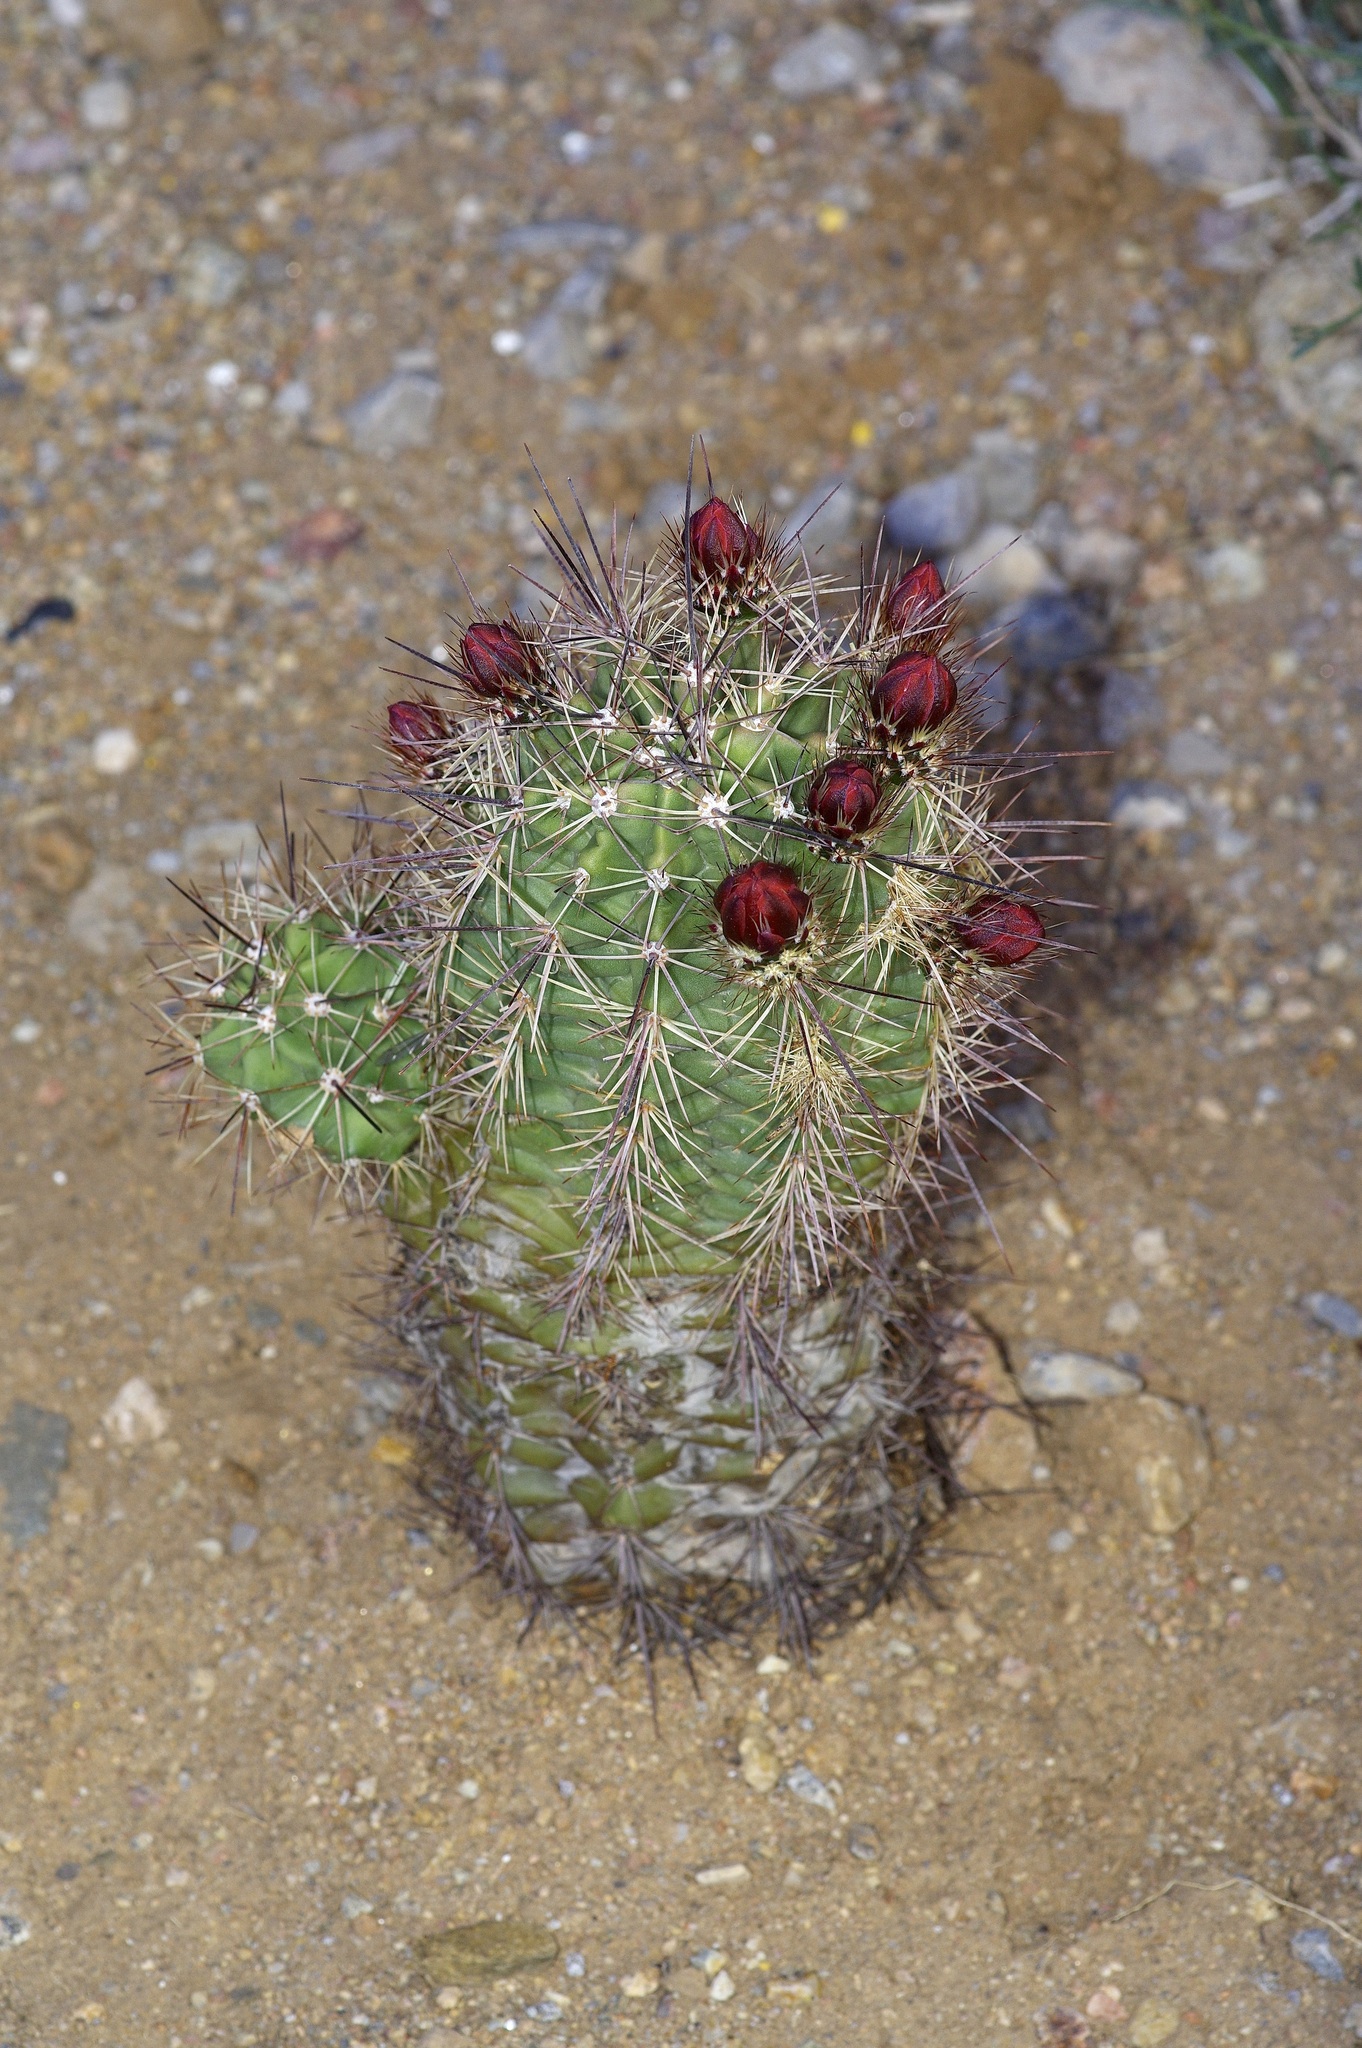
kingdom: Plantae
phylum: Tracheophyta
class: Magnoliopsida
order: Caryophyllales
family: Cactaceae
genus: Echinocereus
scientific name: Echinocereus coccineus
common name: Scarlet hedgehog cactus
